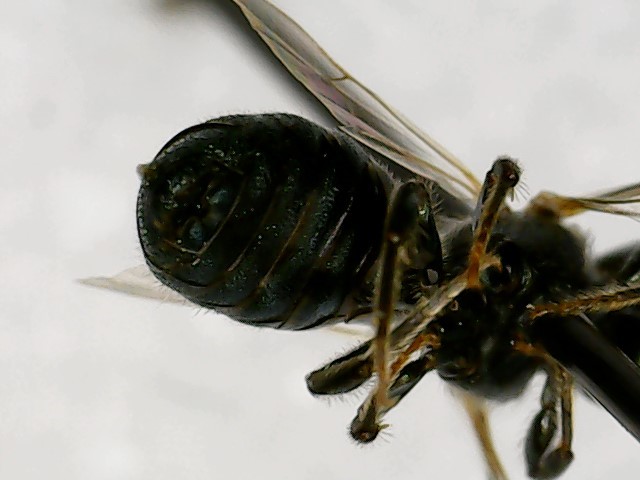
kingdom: Animalia
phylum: Arthropoda
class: Insecta
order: Hymenoptera
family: Apidae
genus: Ceratina
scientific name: Ceratina calcarata
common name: Spurred carpenter bee
